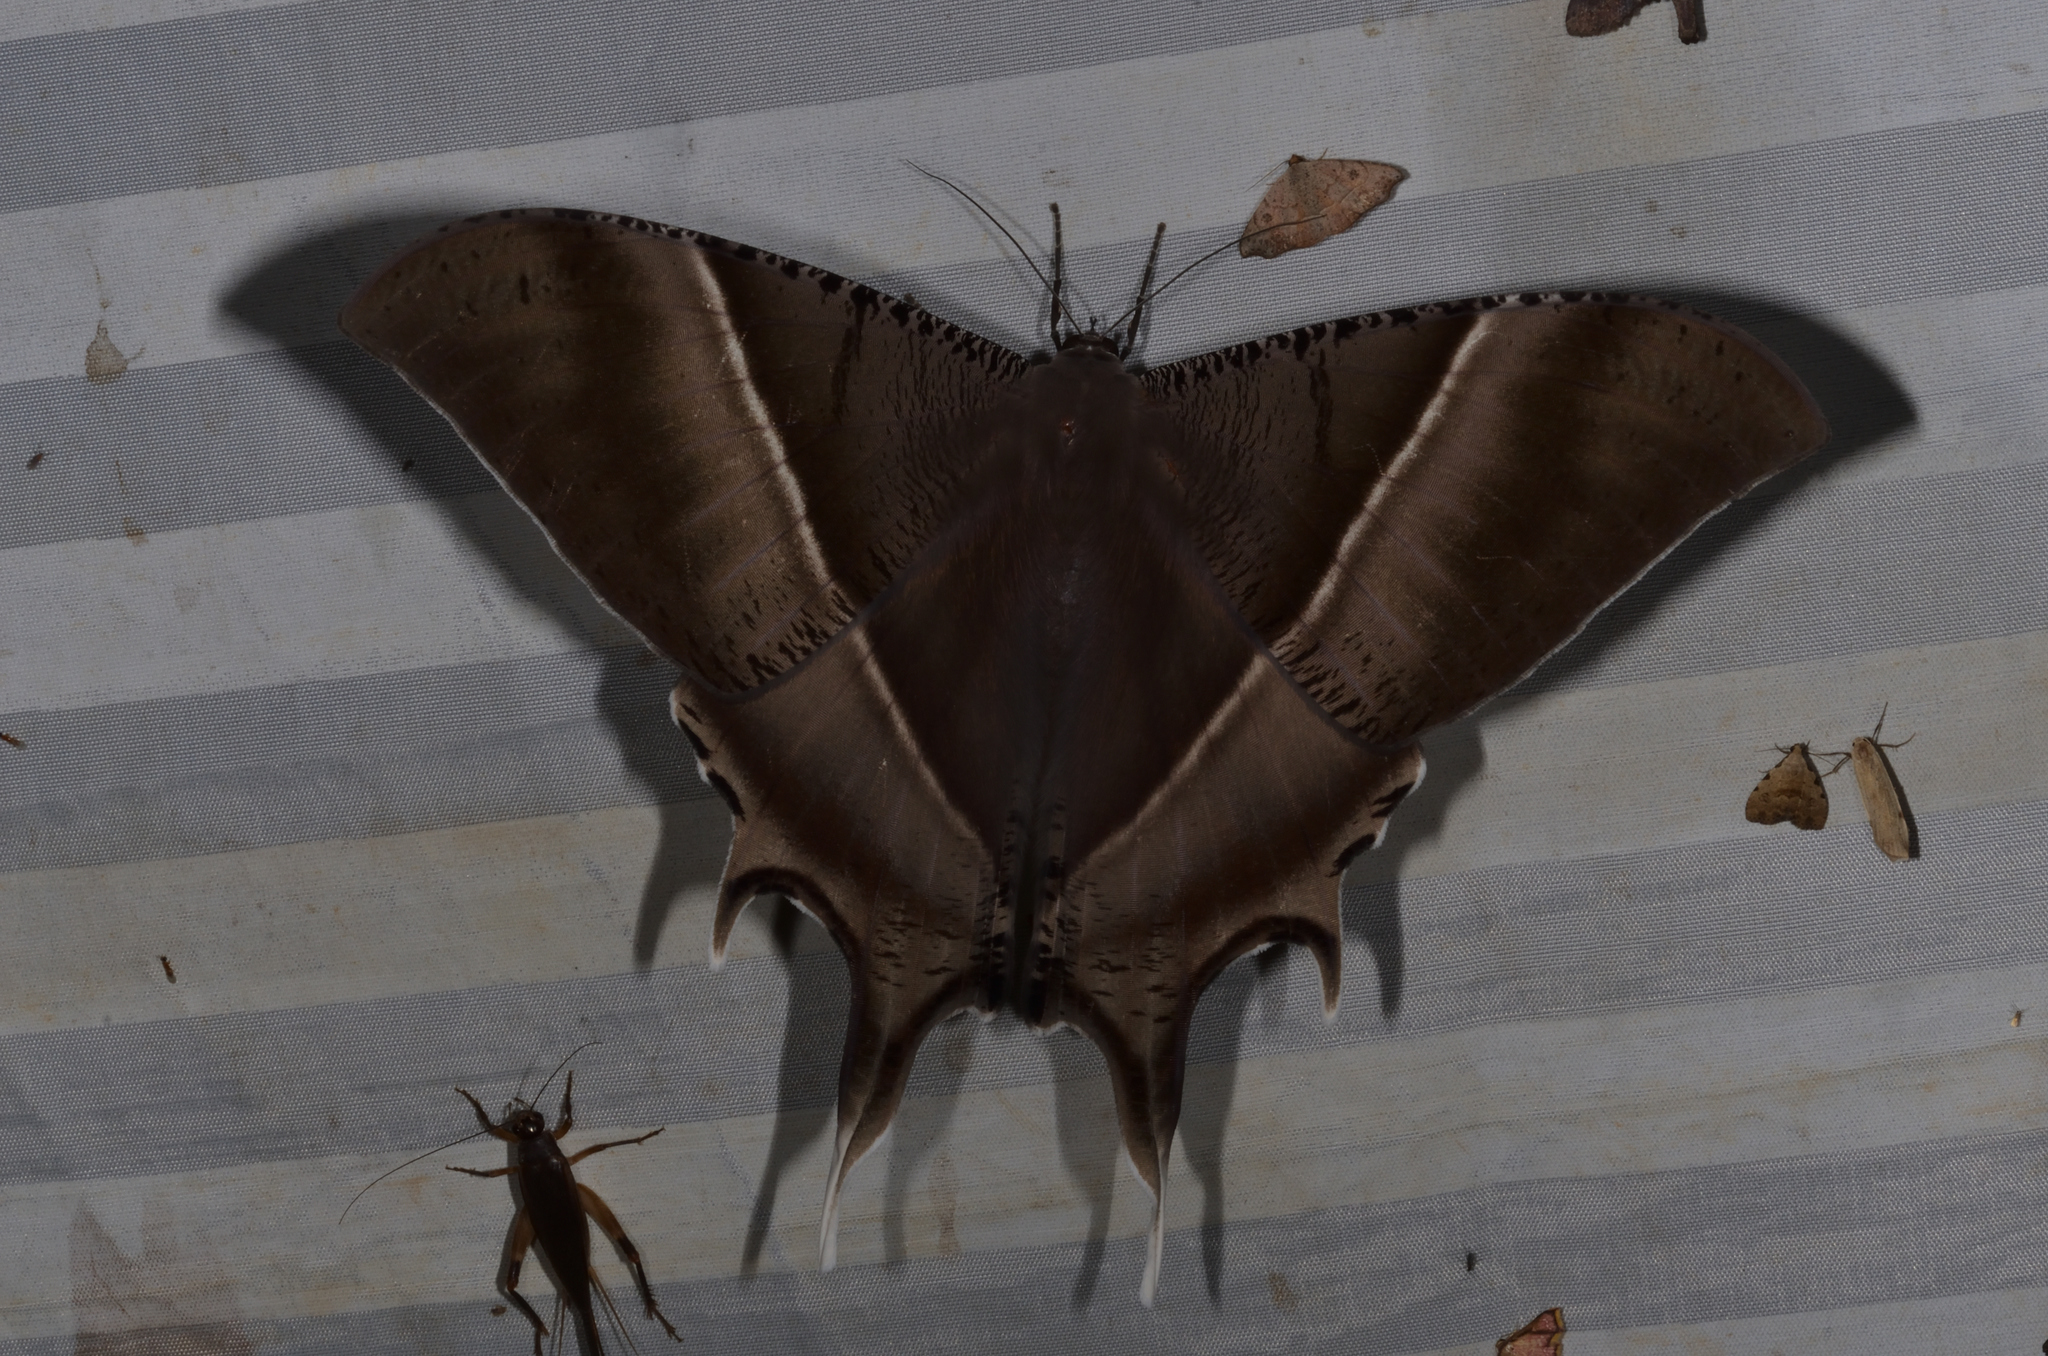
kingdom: Animalia
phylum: Arthropoda
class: Insecta
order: Lepidoptera
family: Uraniidae
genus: Lyssa
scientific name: Lyssa zampa
